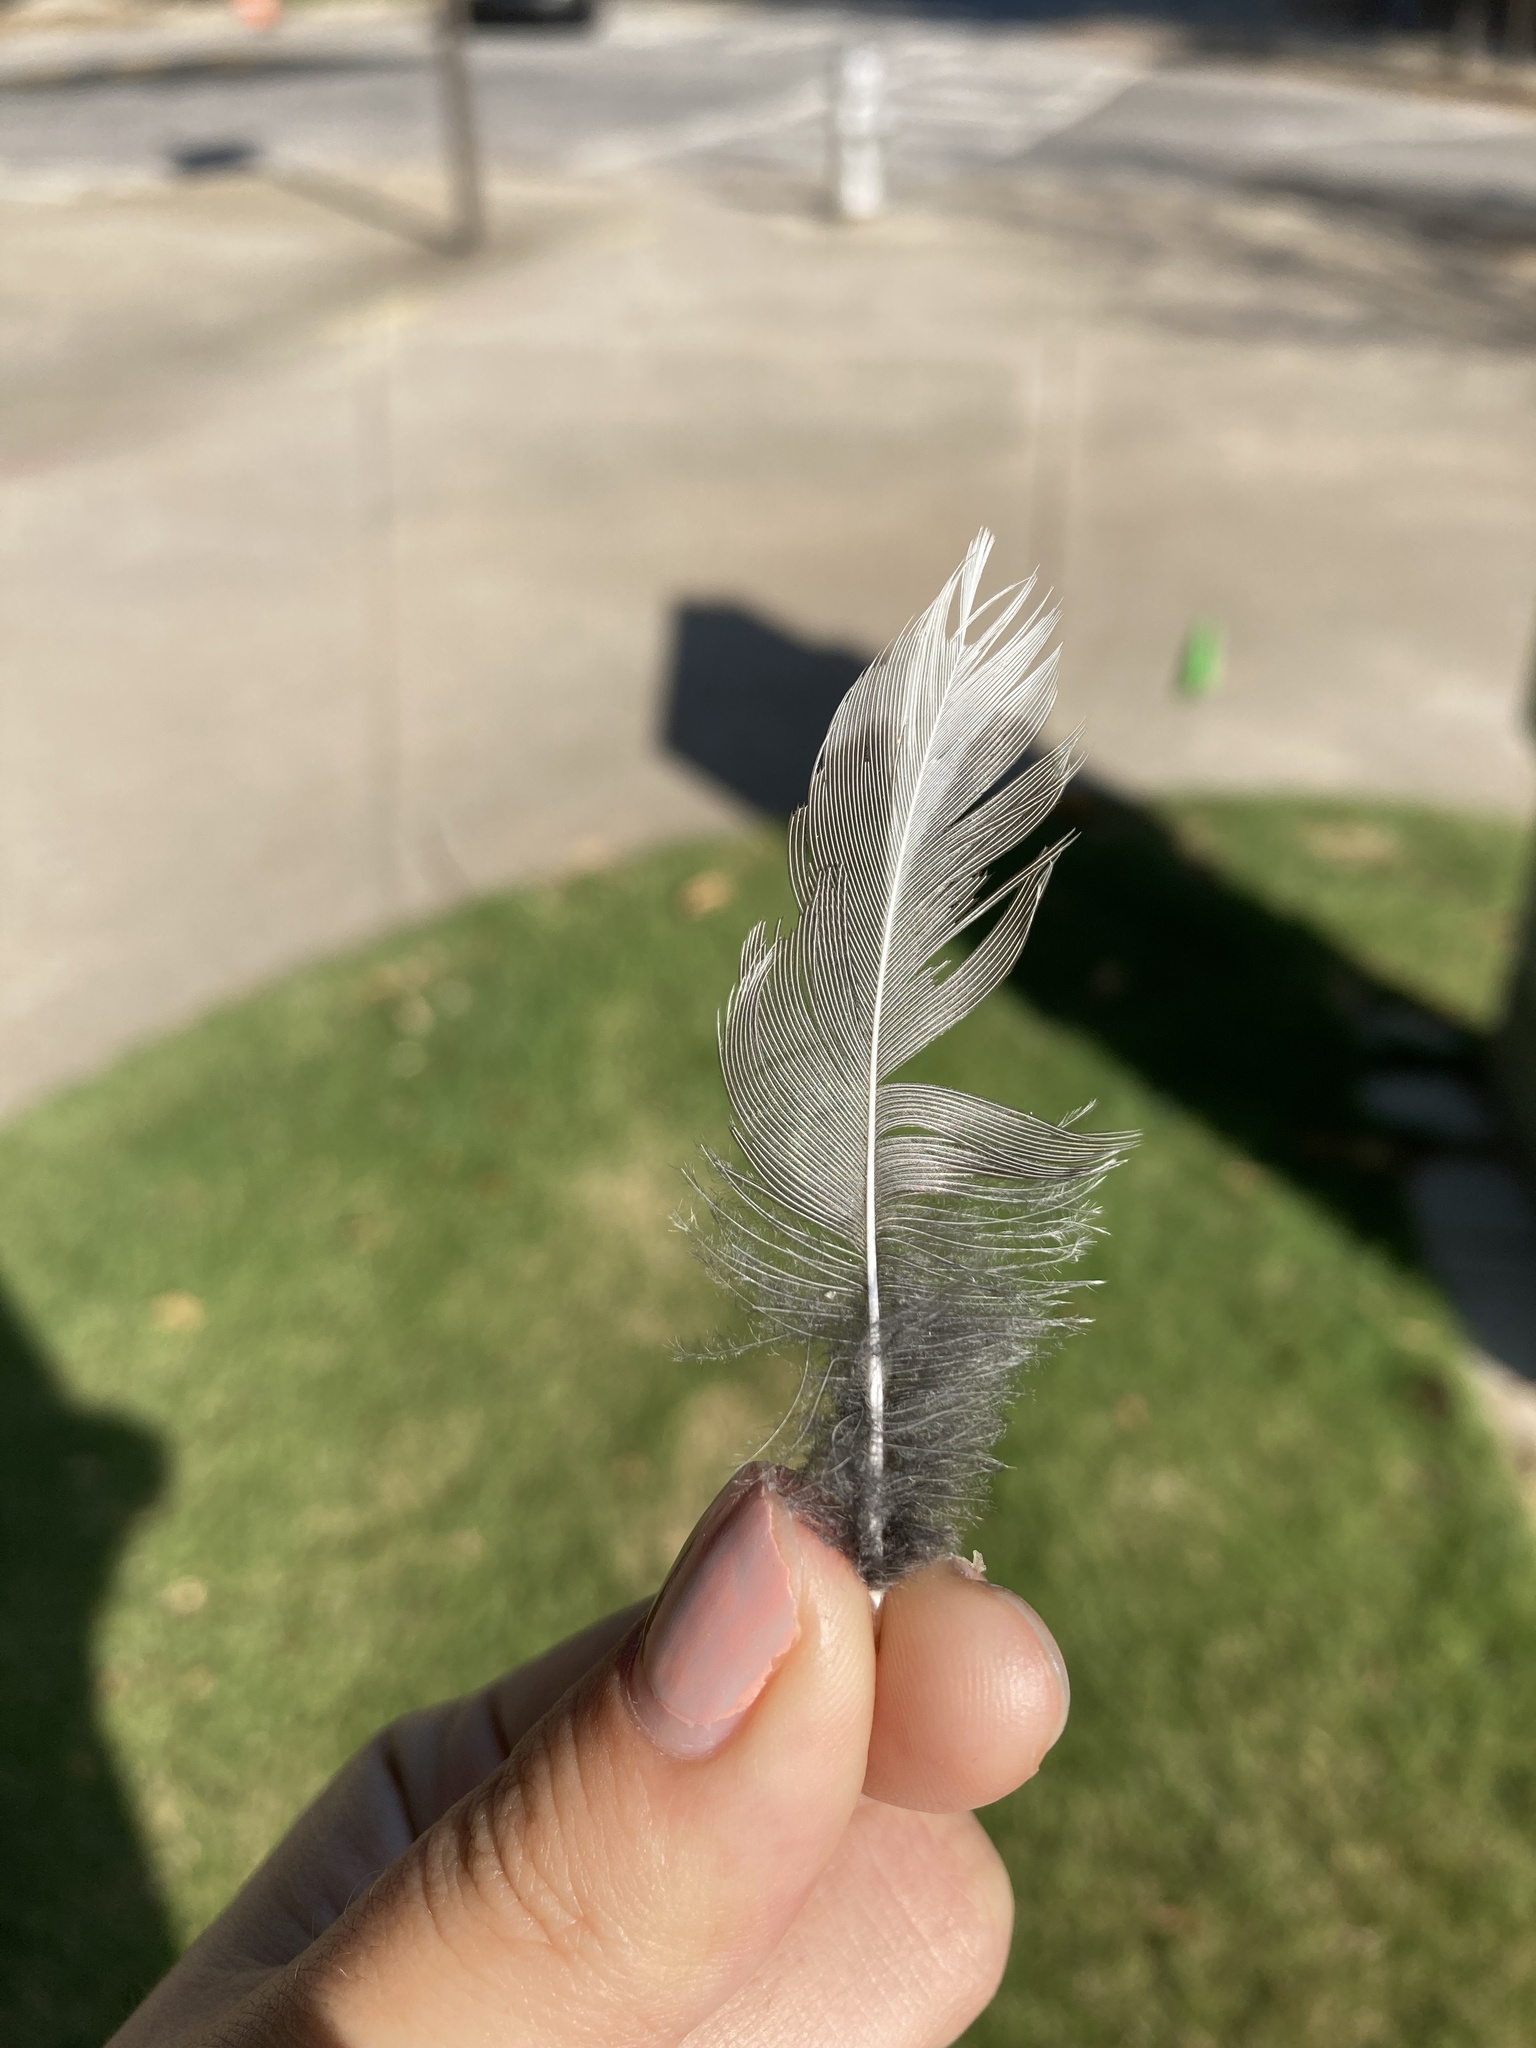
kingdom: Animalia
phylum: Chordata
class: Aves
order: Passeriformes
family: Turdidae
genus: Turdus
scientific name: Turdus migratorius
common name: American robin
